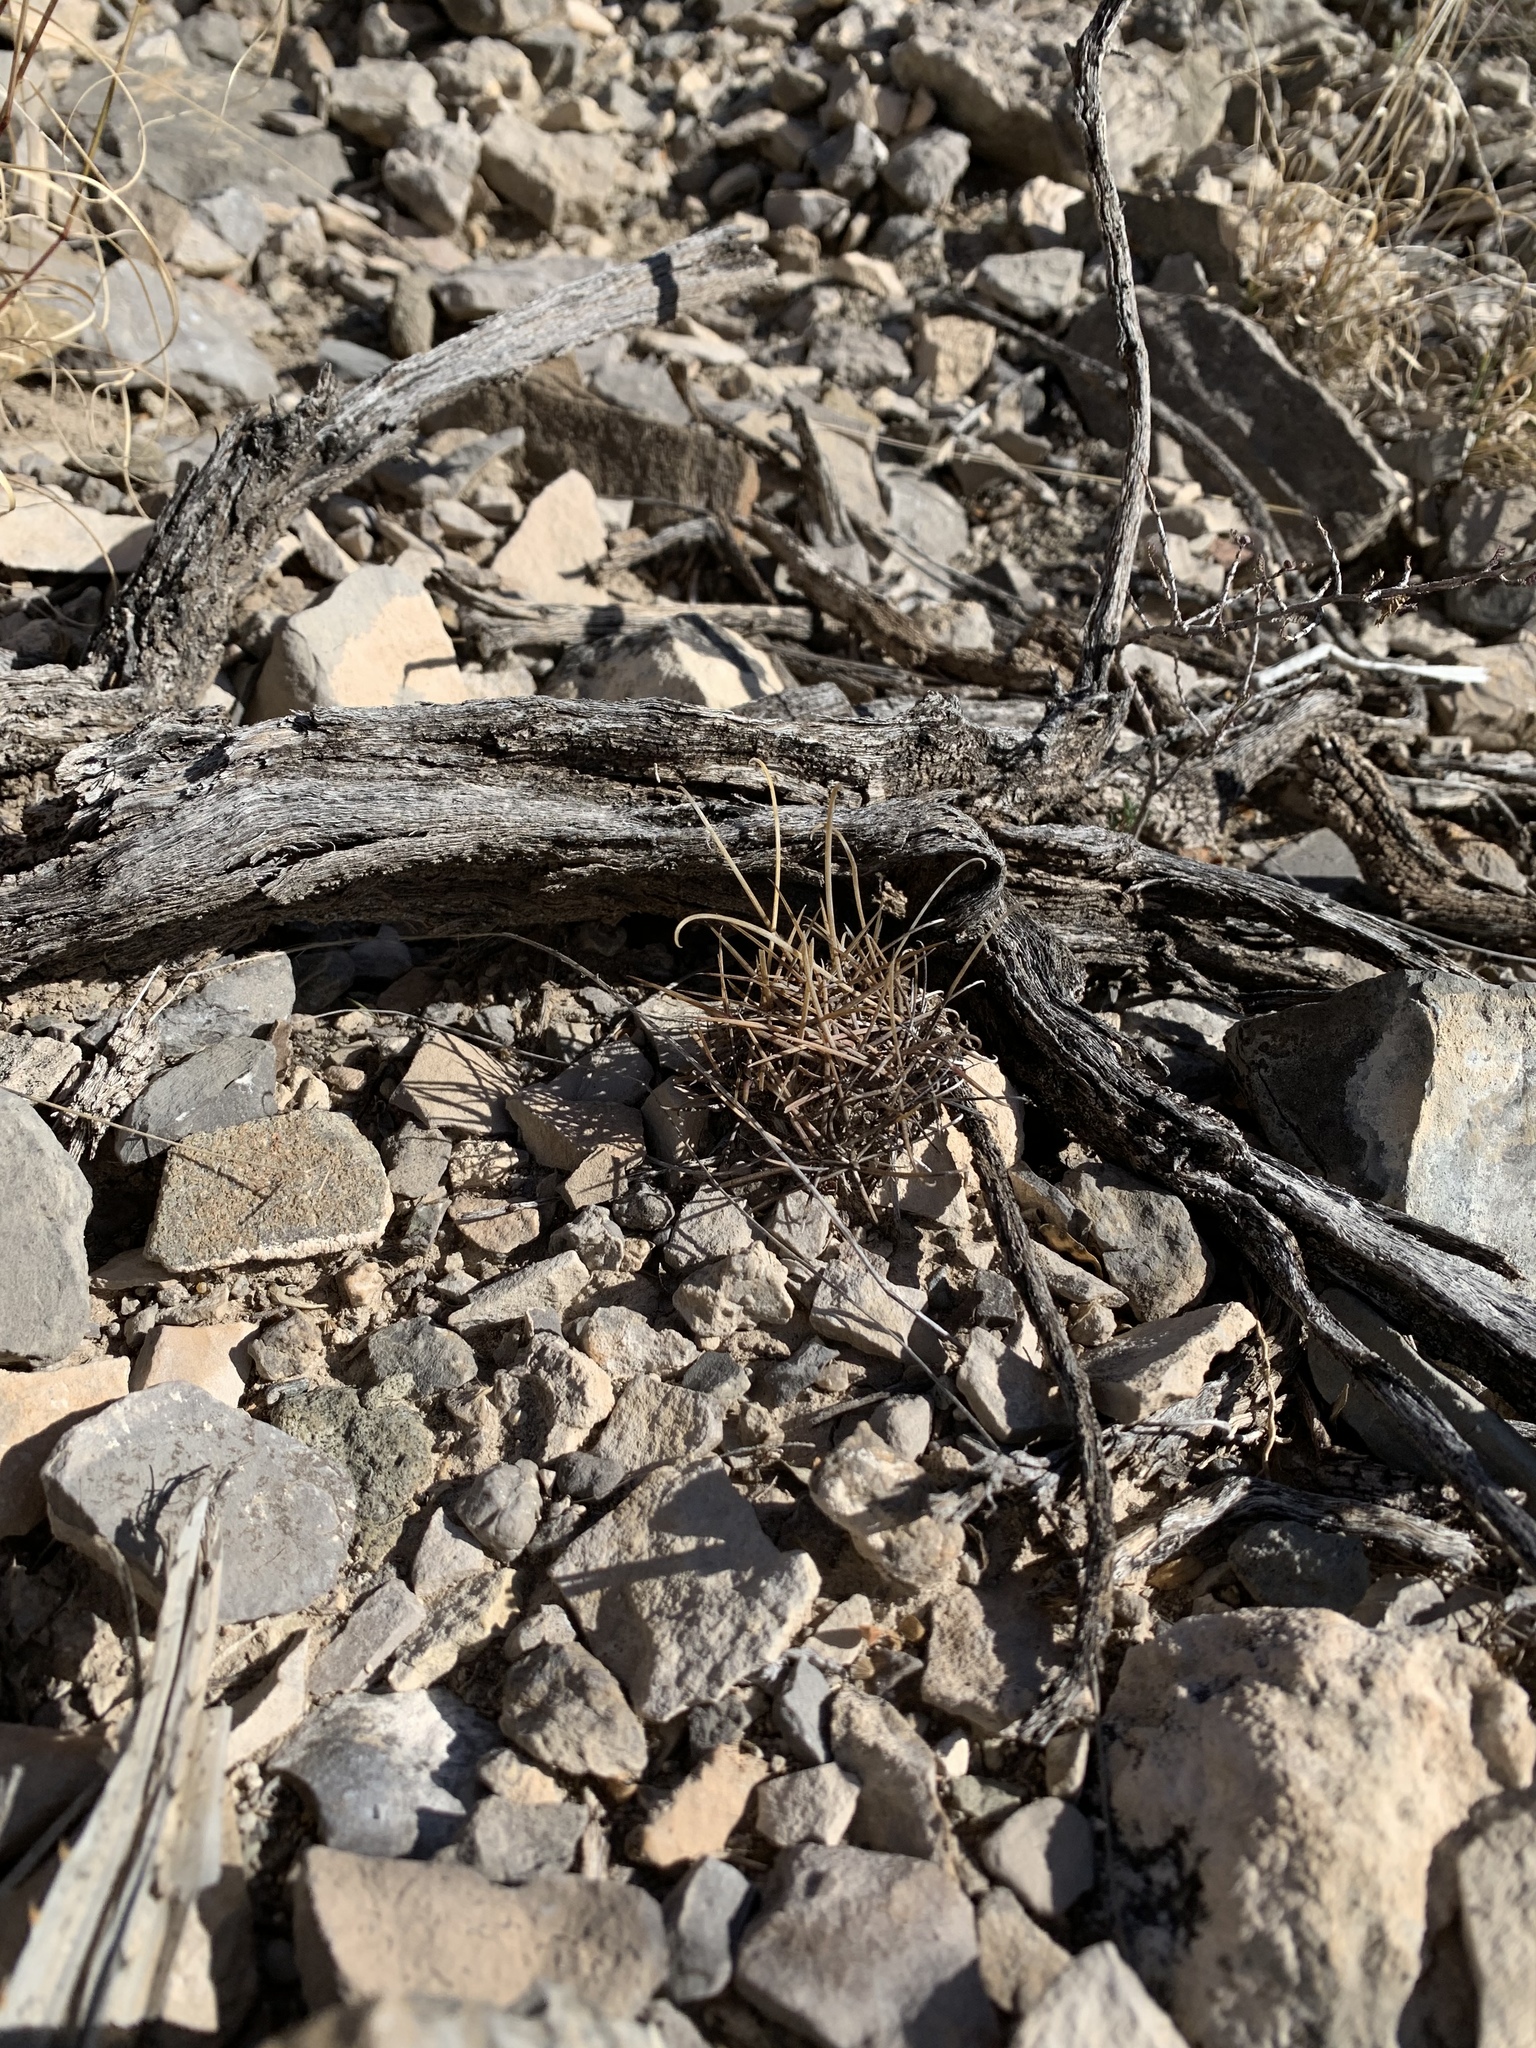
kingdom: Plantae
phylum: Tracheophyta
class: Magnoliopsida
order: Caryophyllales
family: Cactaceae
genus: Ferocactus
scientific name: Ferocactus uncinatus
